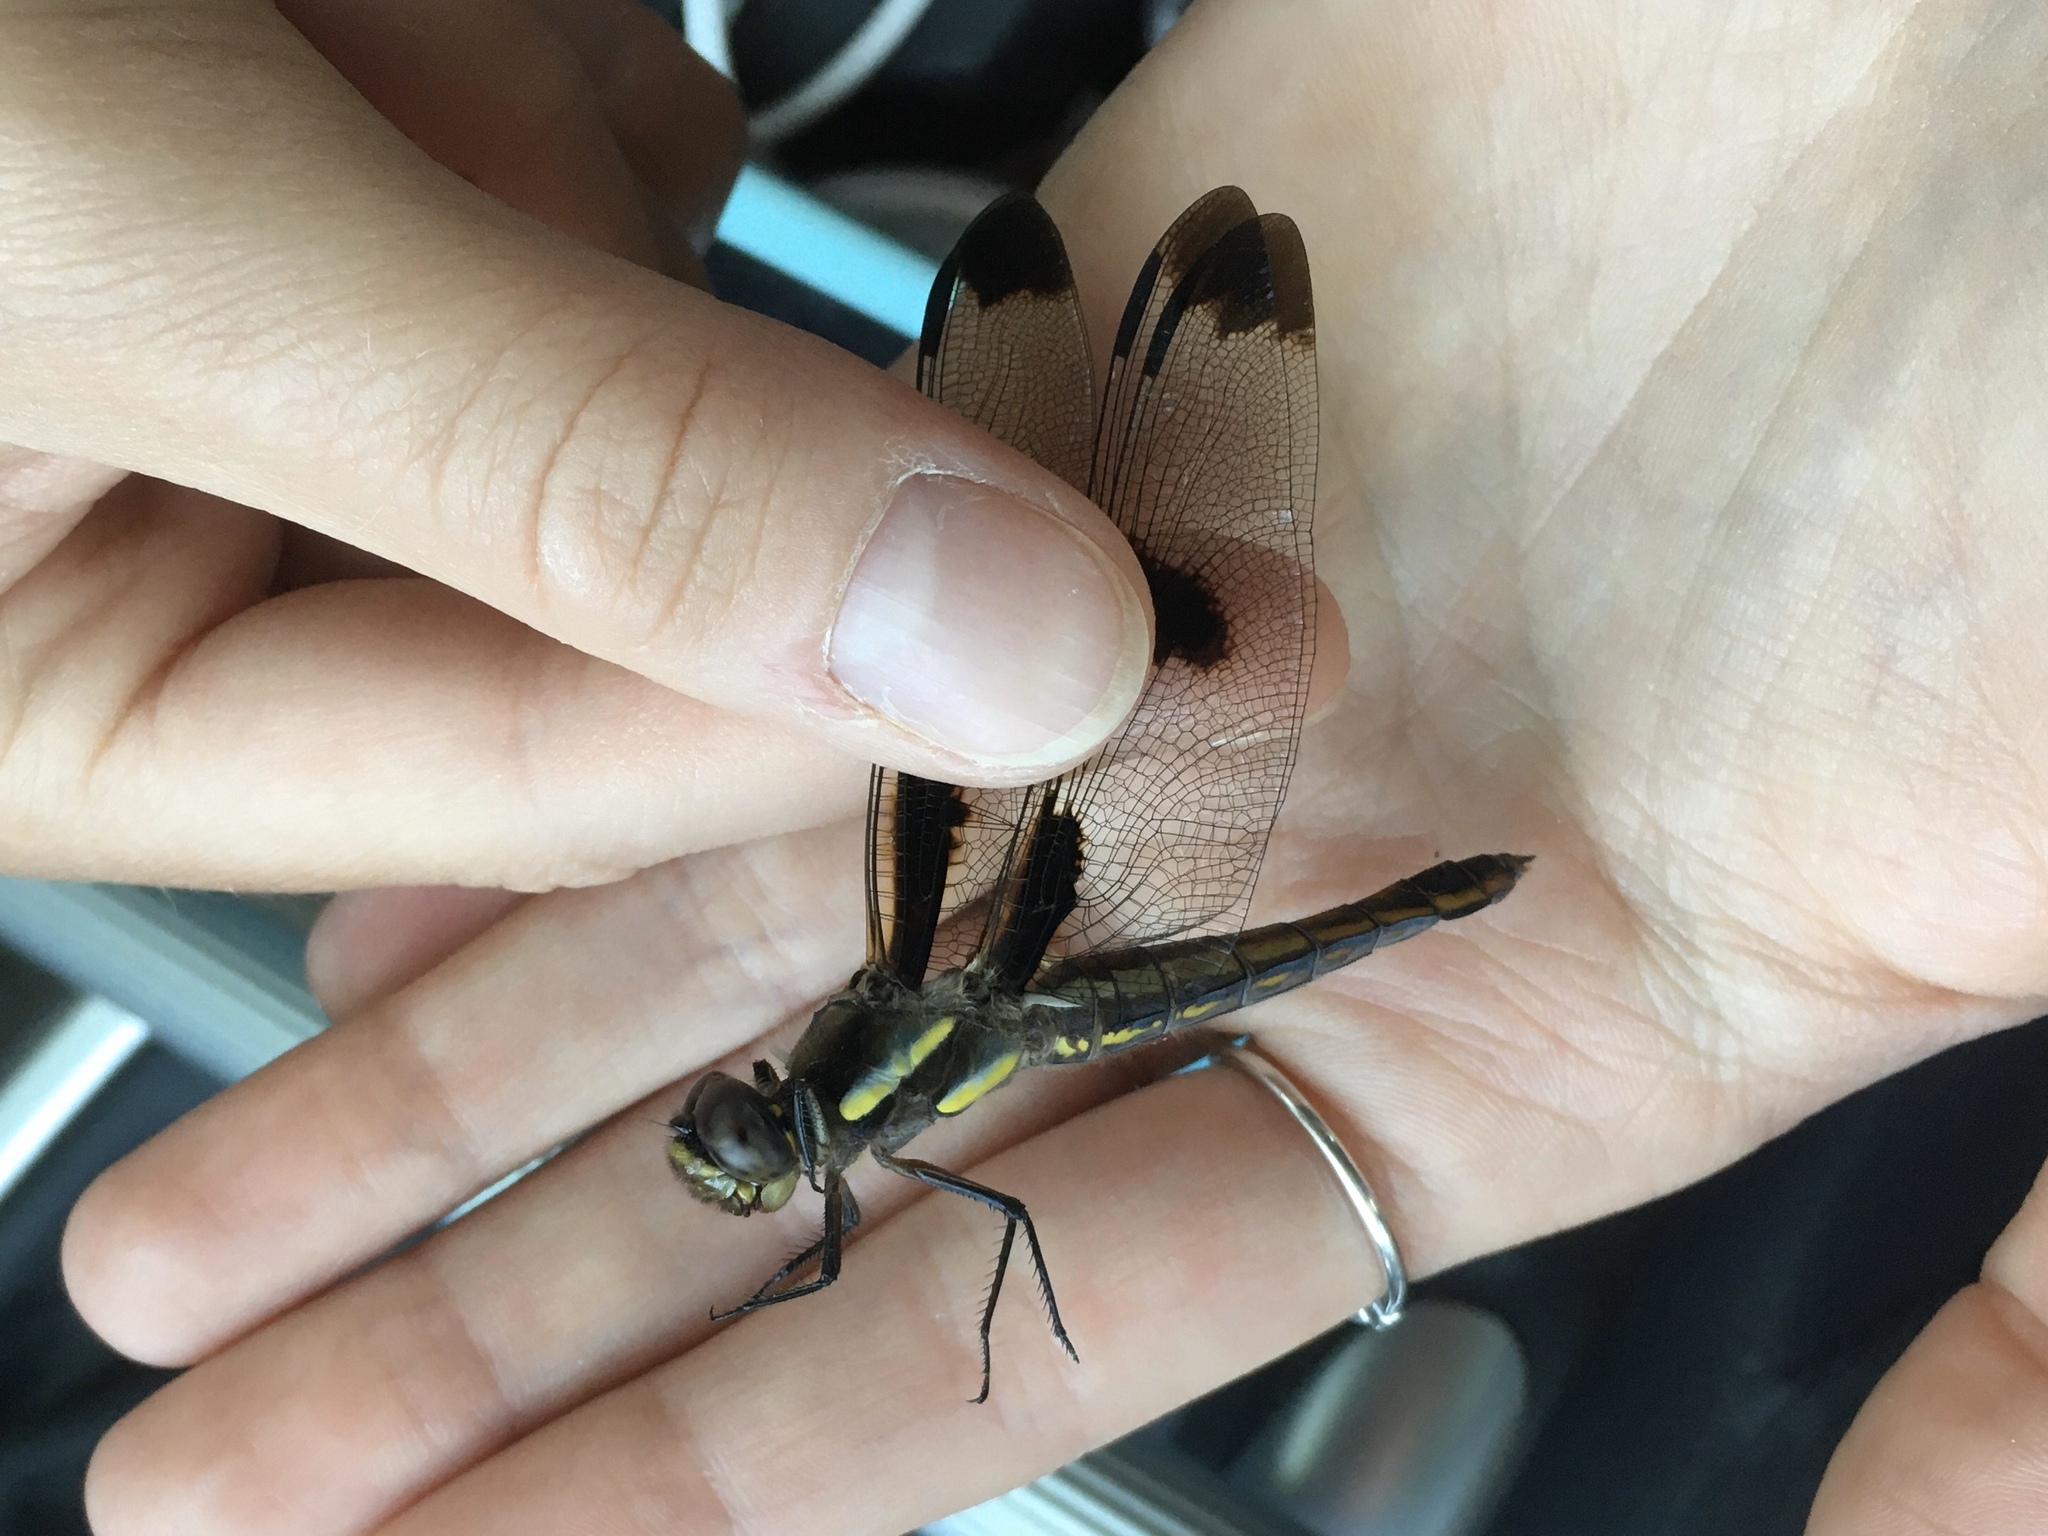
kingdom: Animalia
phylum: Arthropoda
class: Insecta
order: Odonata
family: Libellulidae
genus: Libellula
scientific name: Libellula pulchella
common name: Twelve-spotted skimmer
